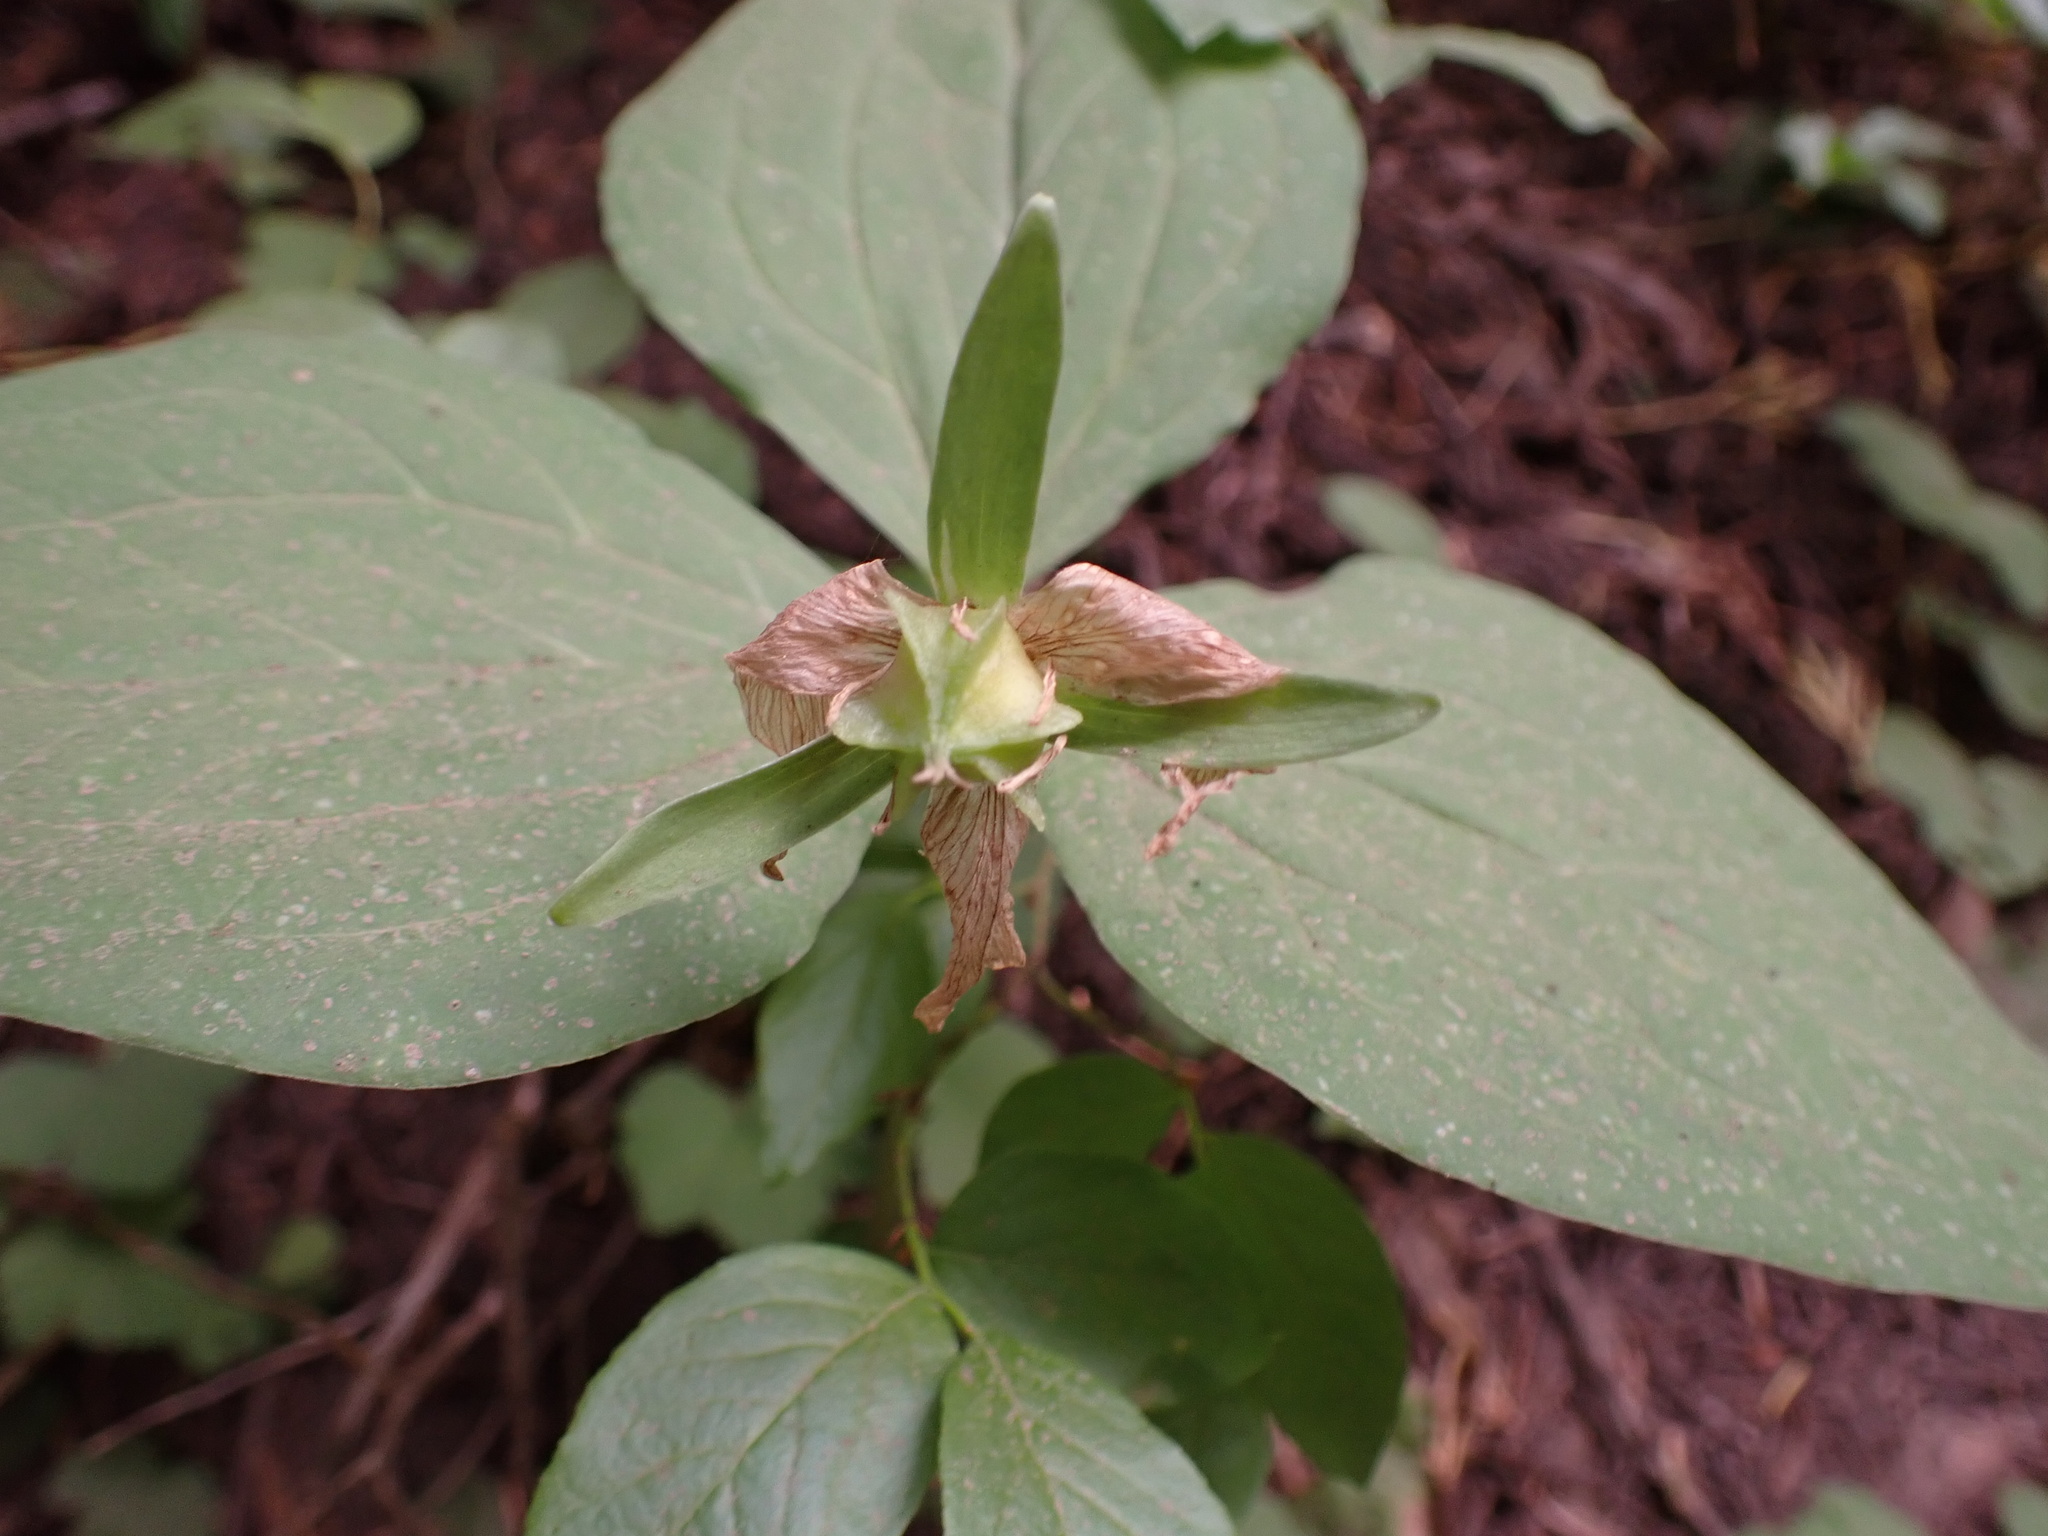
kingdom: Plantae
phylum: Tracheophyta
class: Liliopsida
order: Liliales
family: Melanthiaceae
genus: Trillium
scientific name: Trillium ovatum
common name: Pacific trillium
